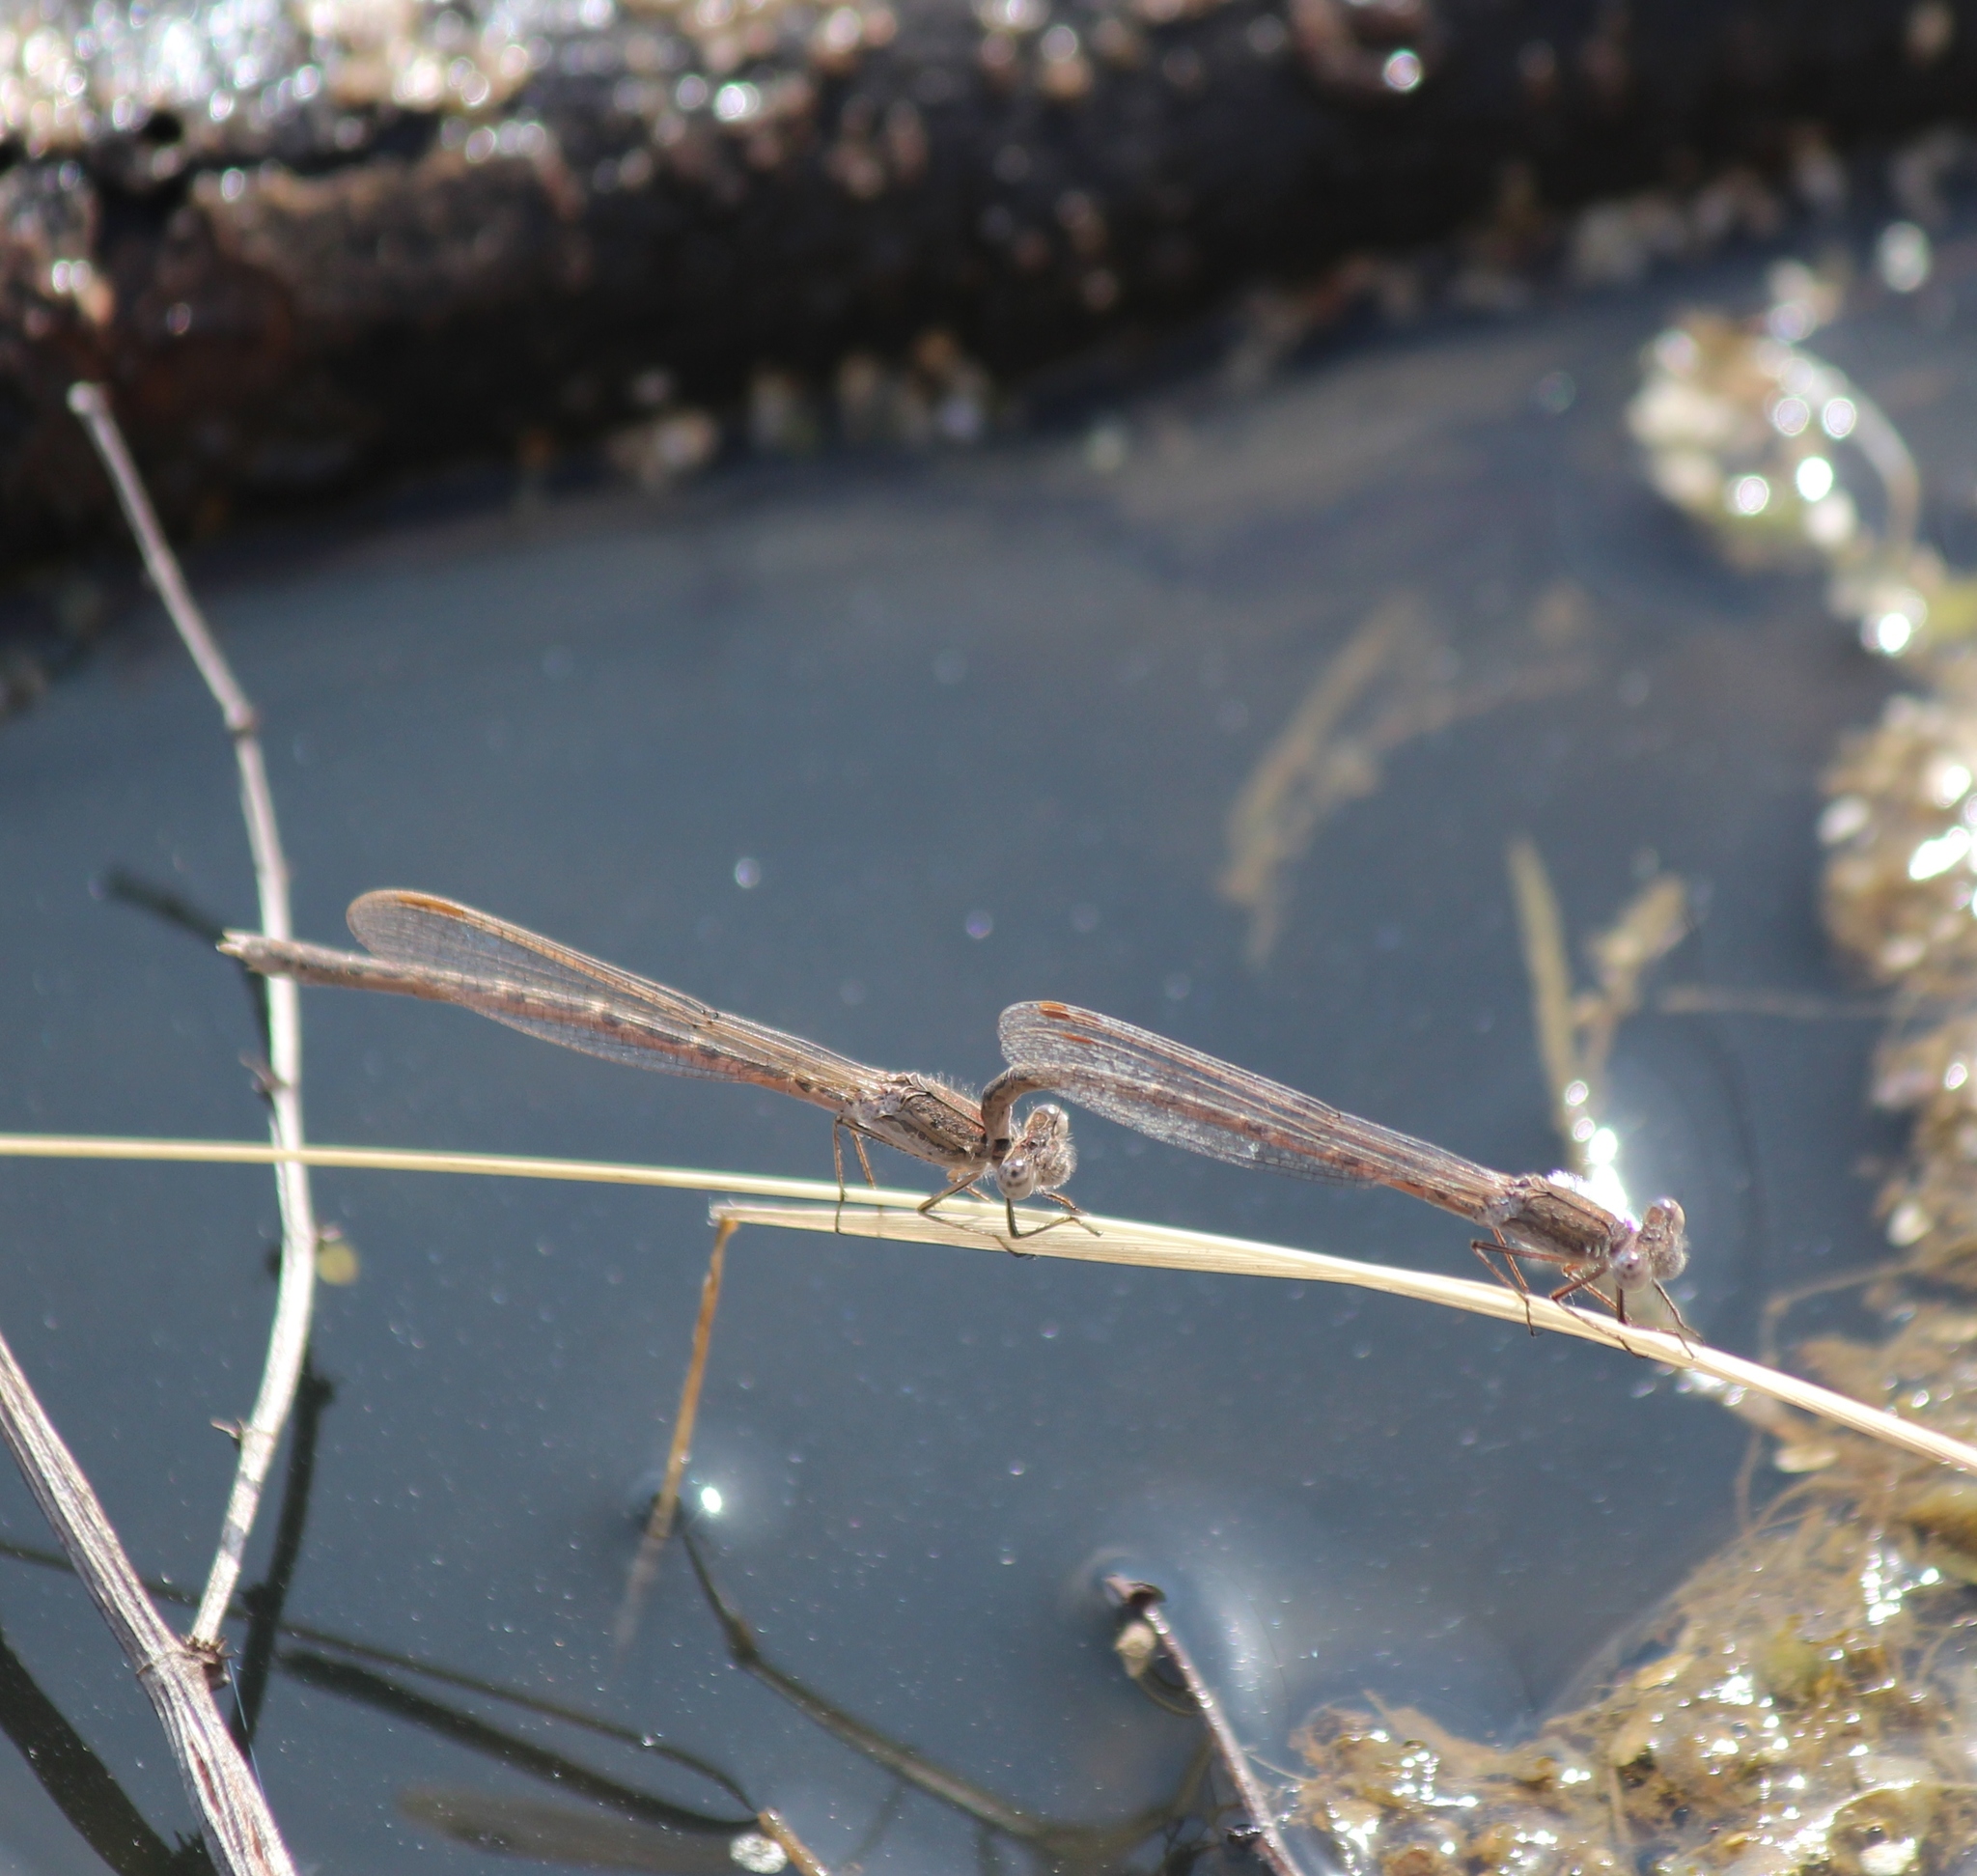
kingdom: Animalia
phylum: Arthropoda
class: Insecta
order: Odonata
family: Lestidae
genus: Sympecma
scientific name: Sympecma paedisca
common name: Siberian winter damsel
